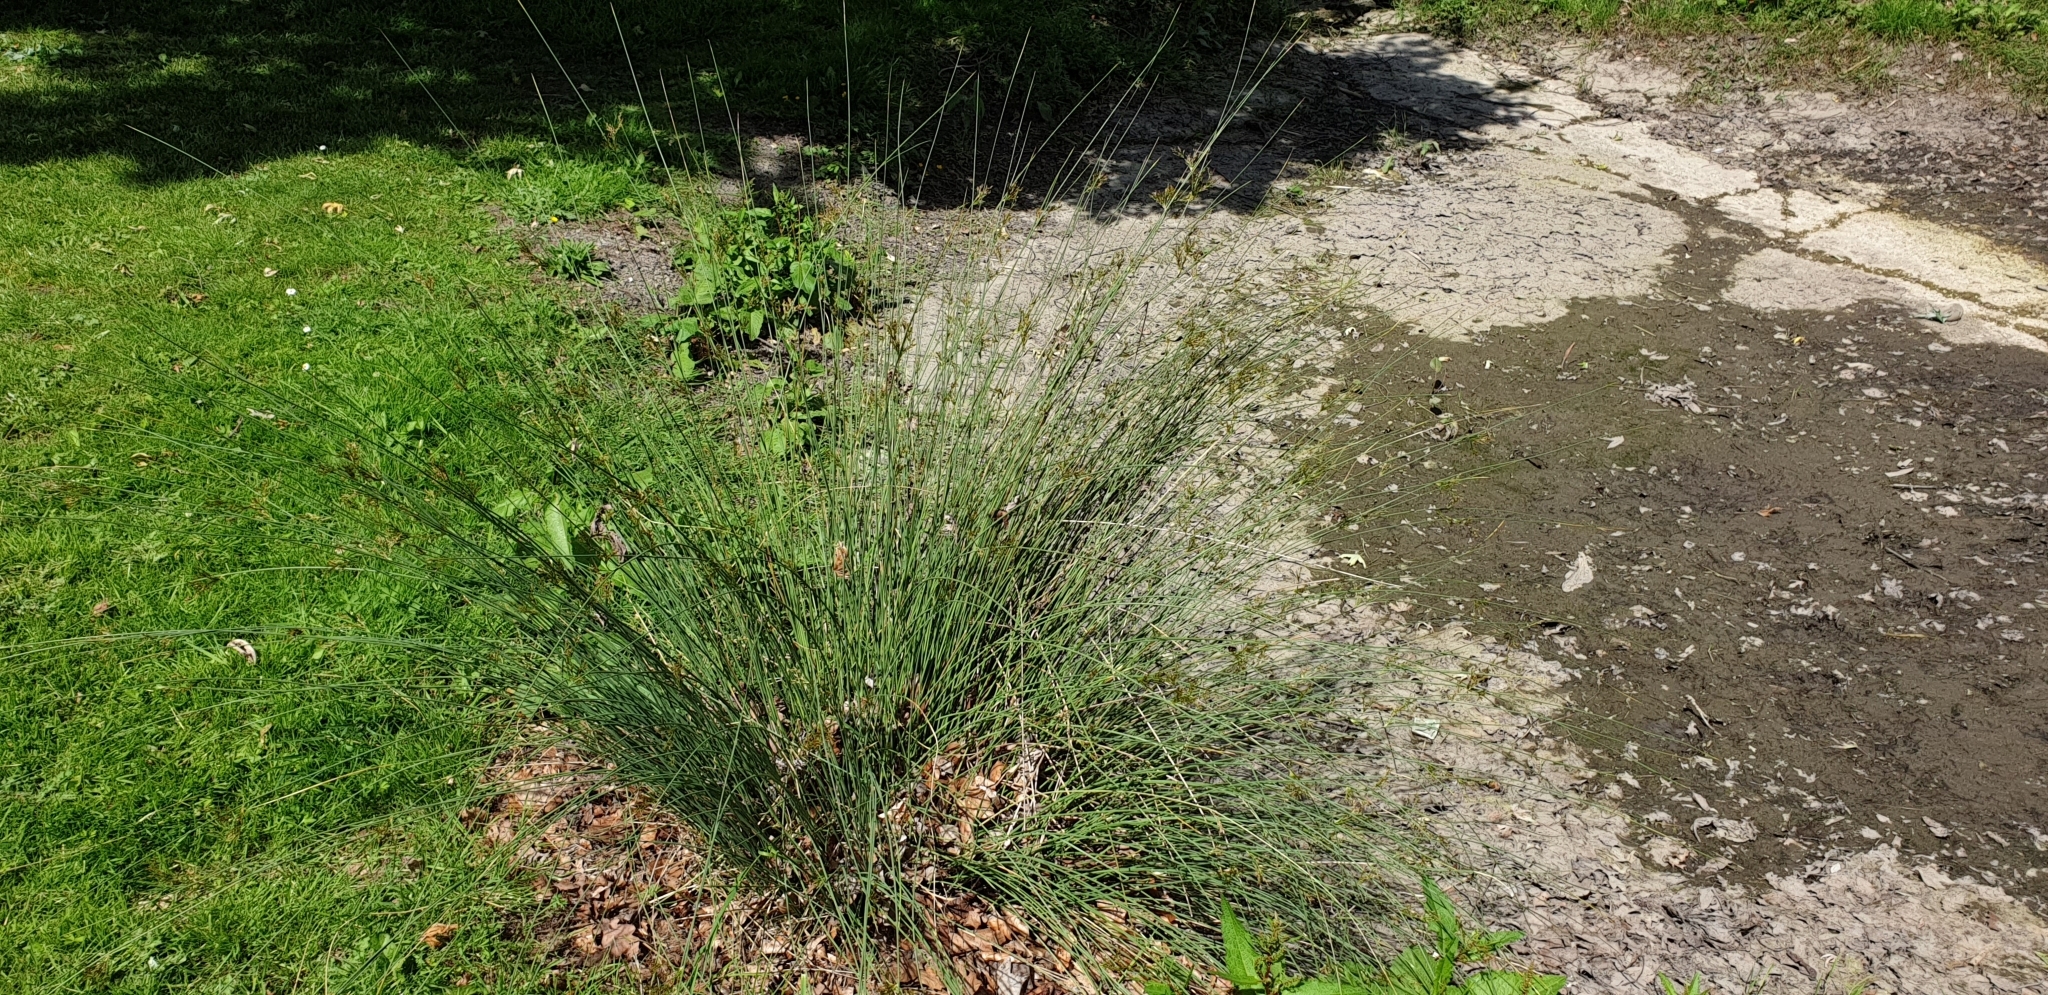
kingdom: Plantae
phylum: Tracheophyta
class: Liliopsida
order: Poales
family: Juncaceae
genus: Juncus
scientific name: Juncus inflexus
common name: Hard rush
